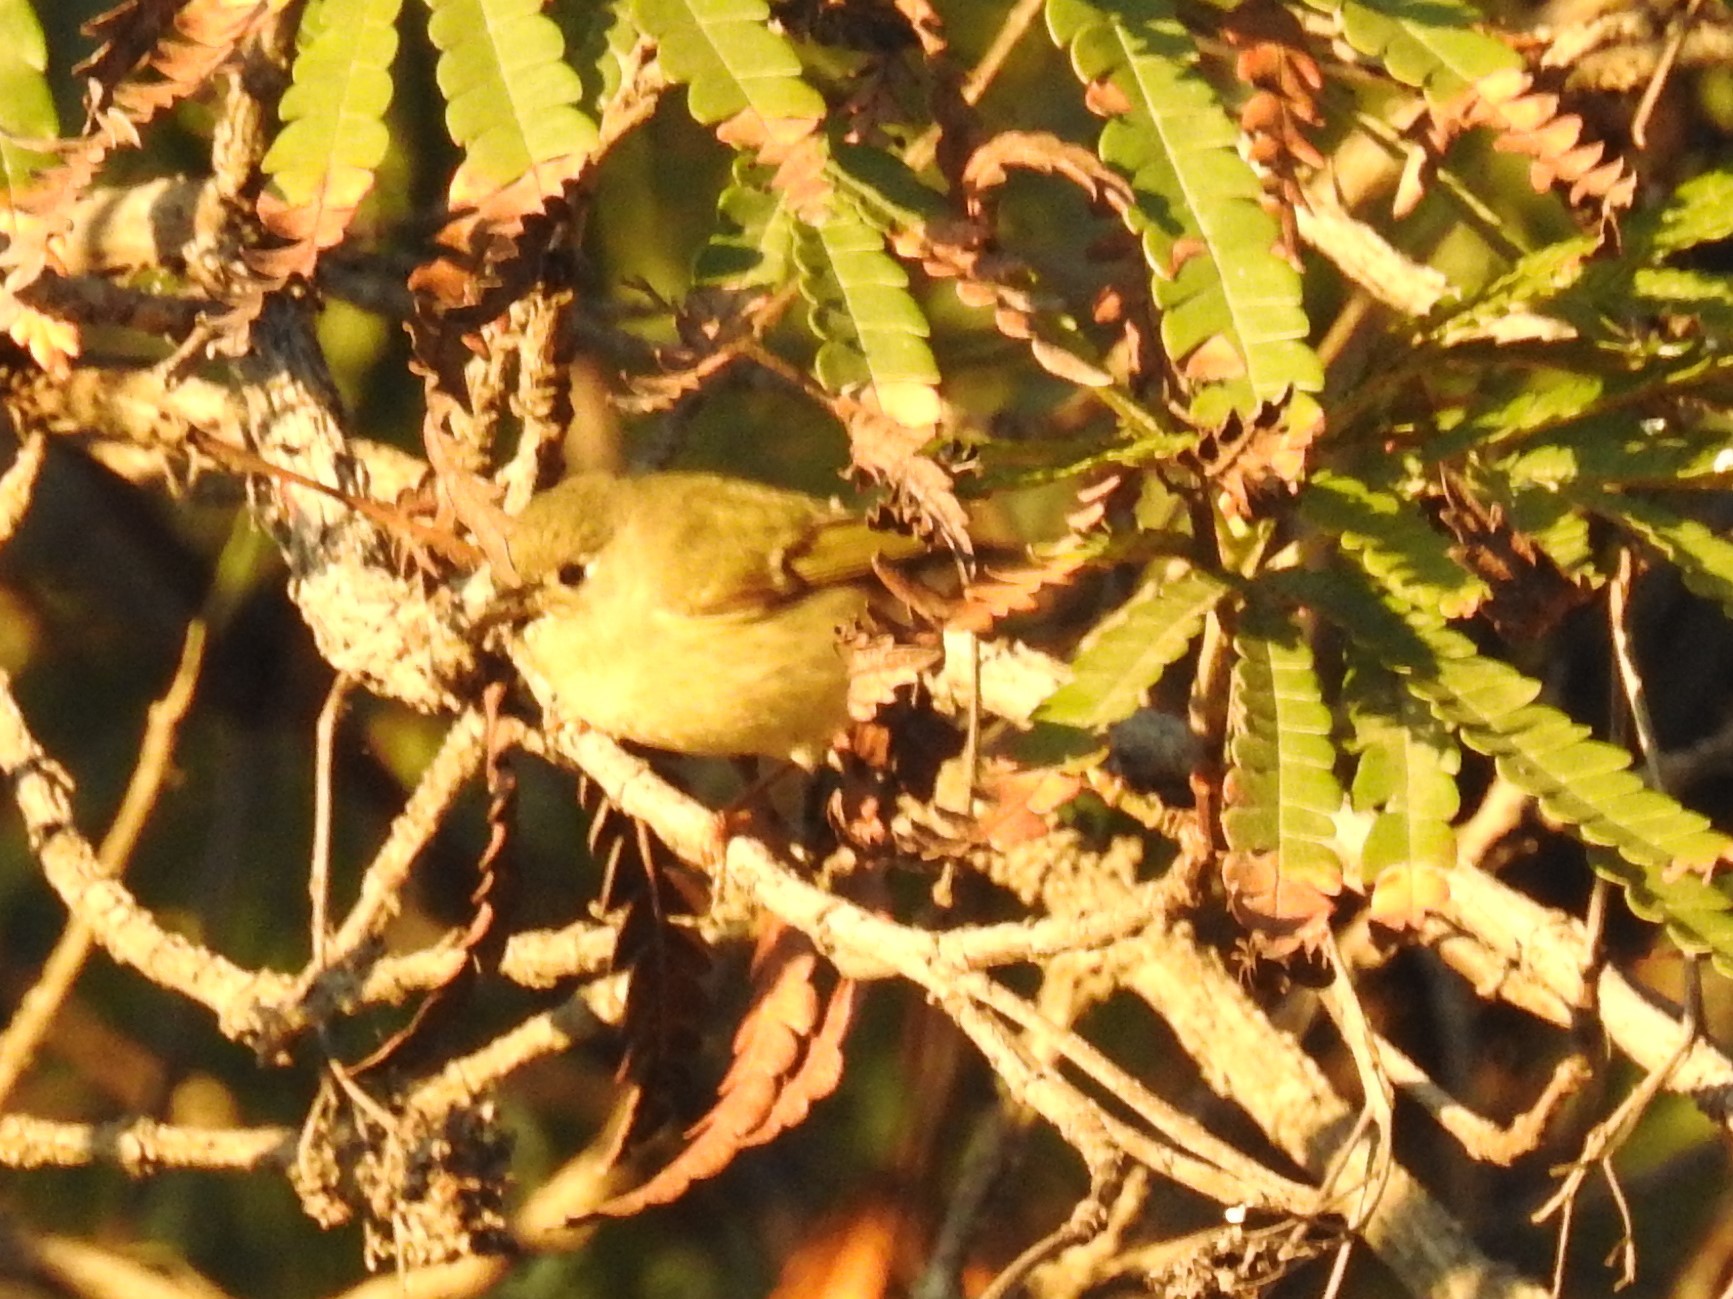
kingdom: Animalia
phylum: Chordata
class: Aves
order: Passeriformes
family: Regulidae
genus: Regulus
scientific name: Regulus calendula
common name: Ruby-crowned kinglet
